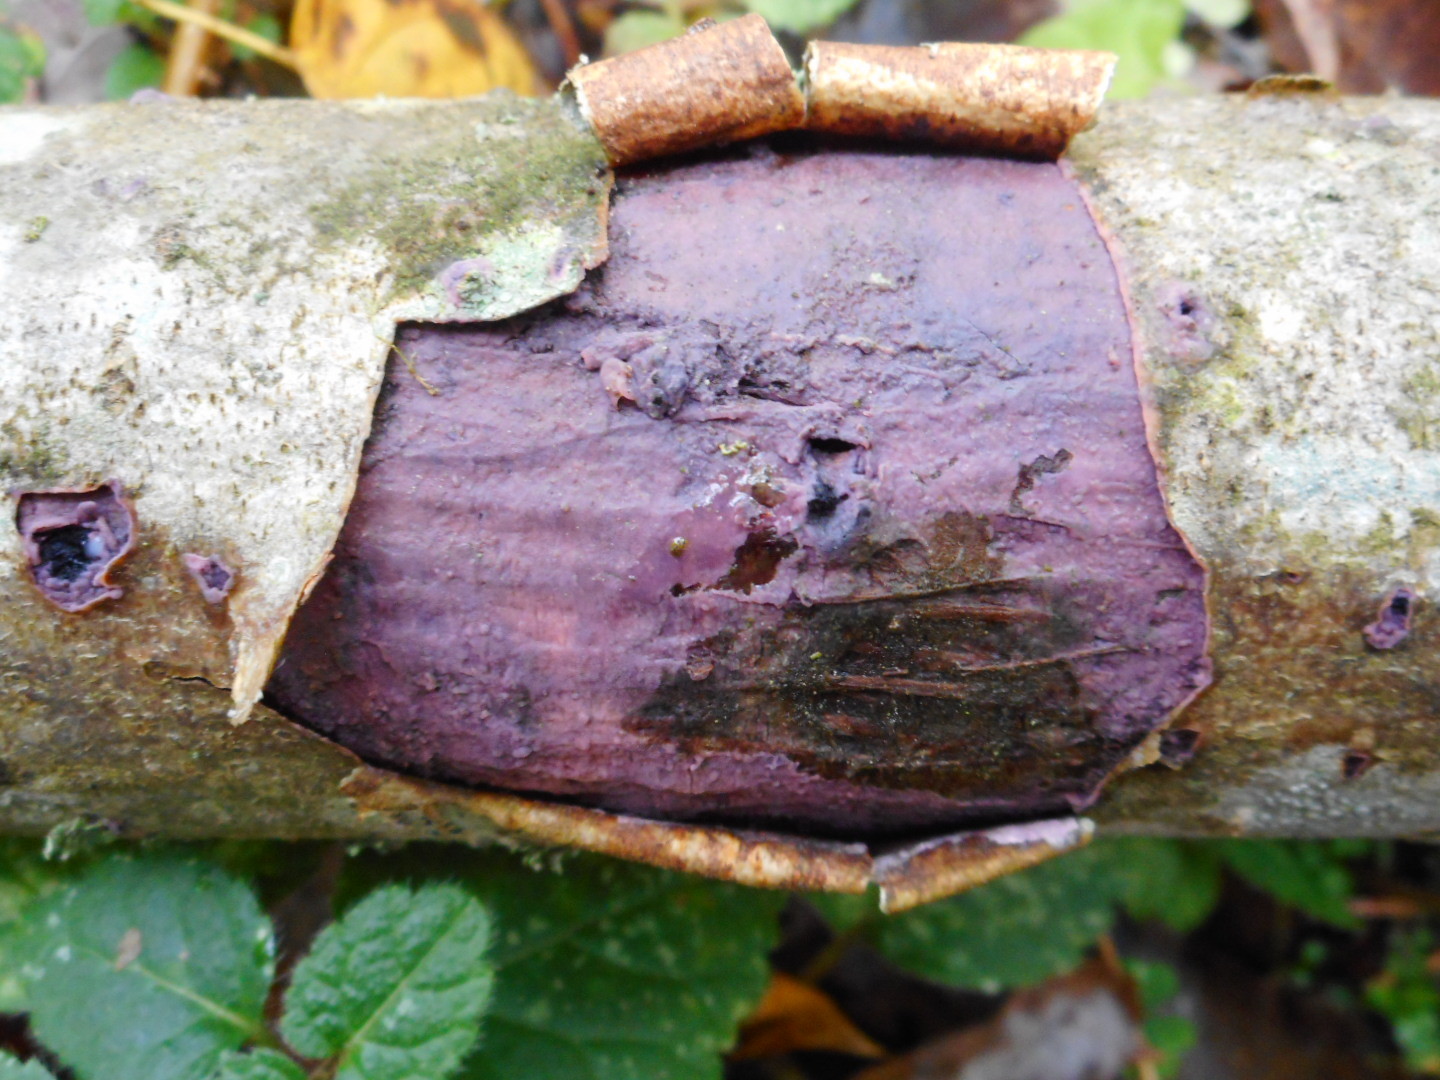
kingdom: Fungi
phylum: Basidiomycota
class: Agaricomycetes
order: Cantharellales
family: Tulasnellaceae
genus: Tulasnella
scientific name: Tulasnella violea
